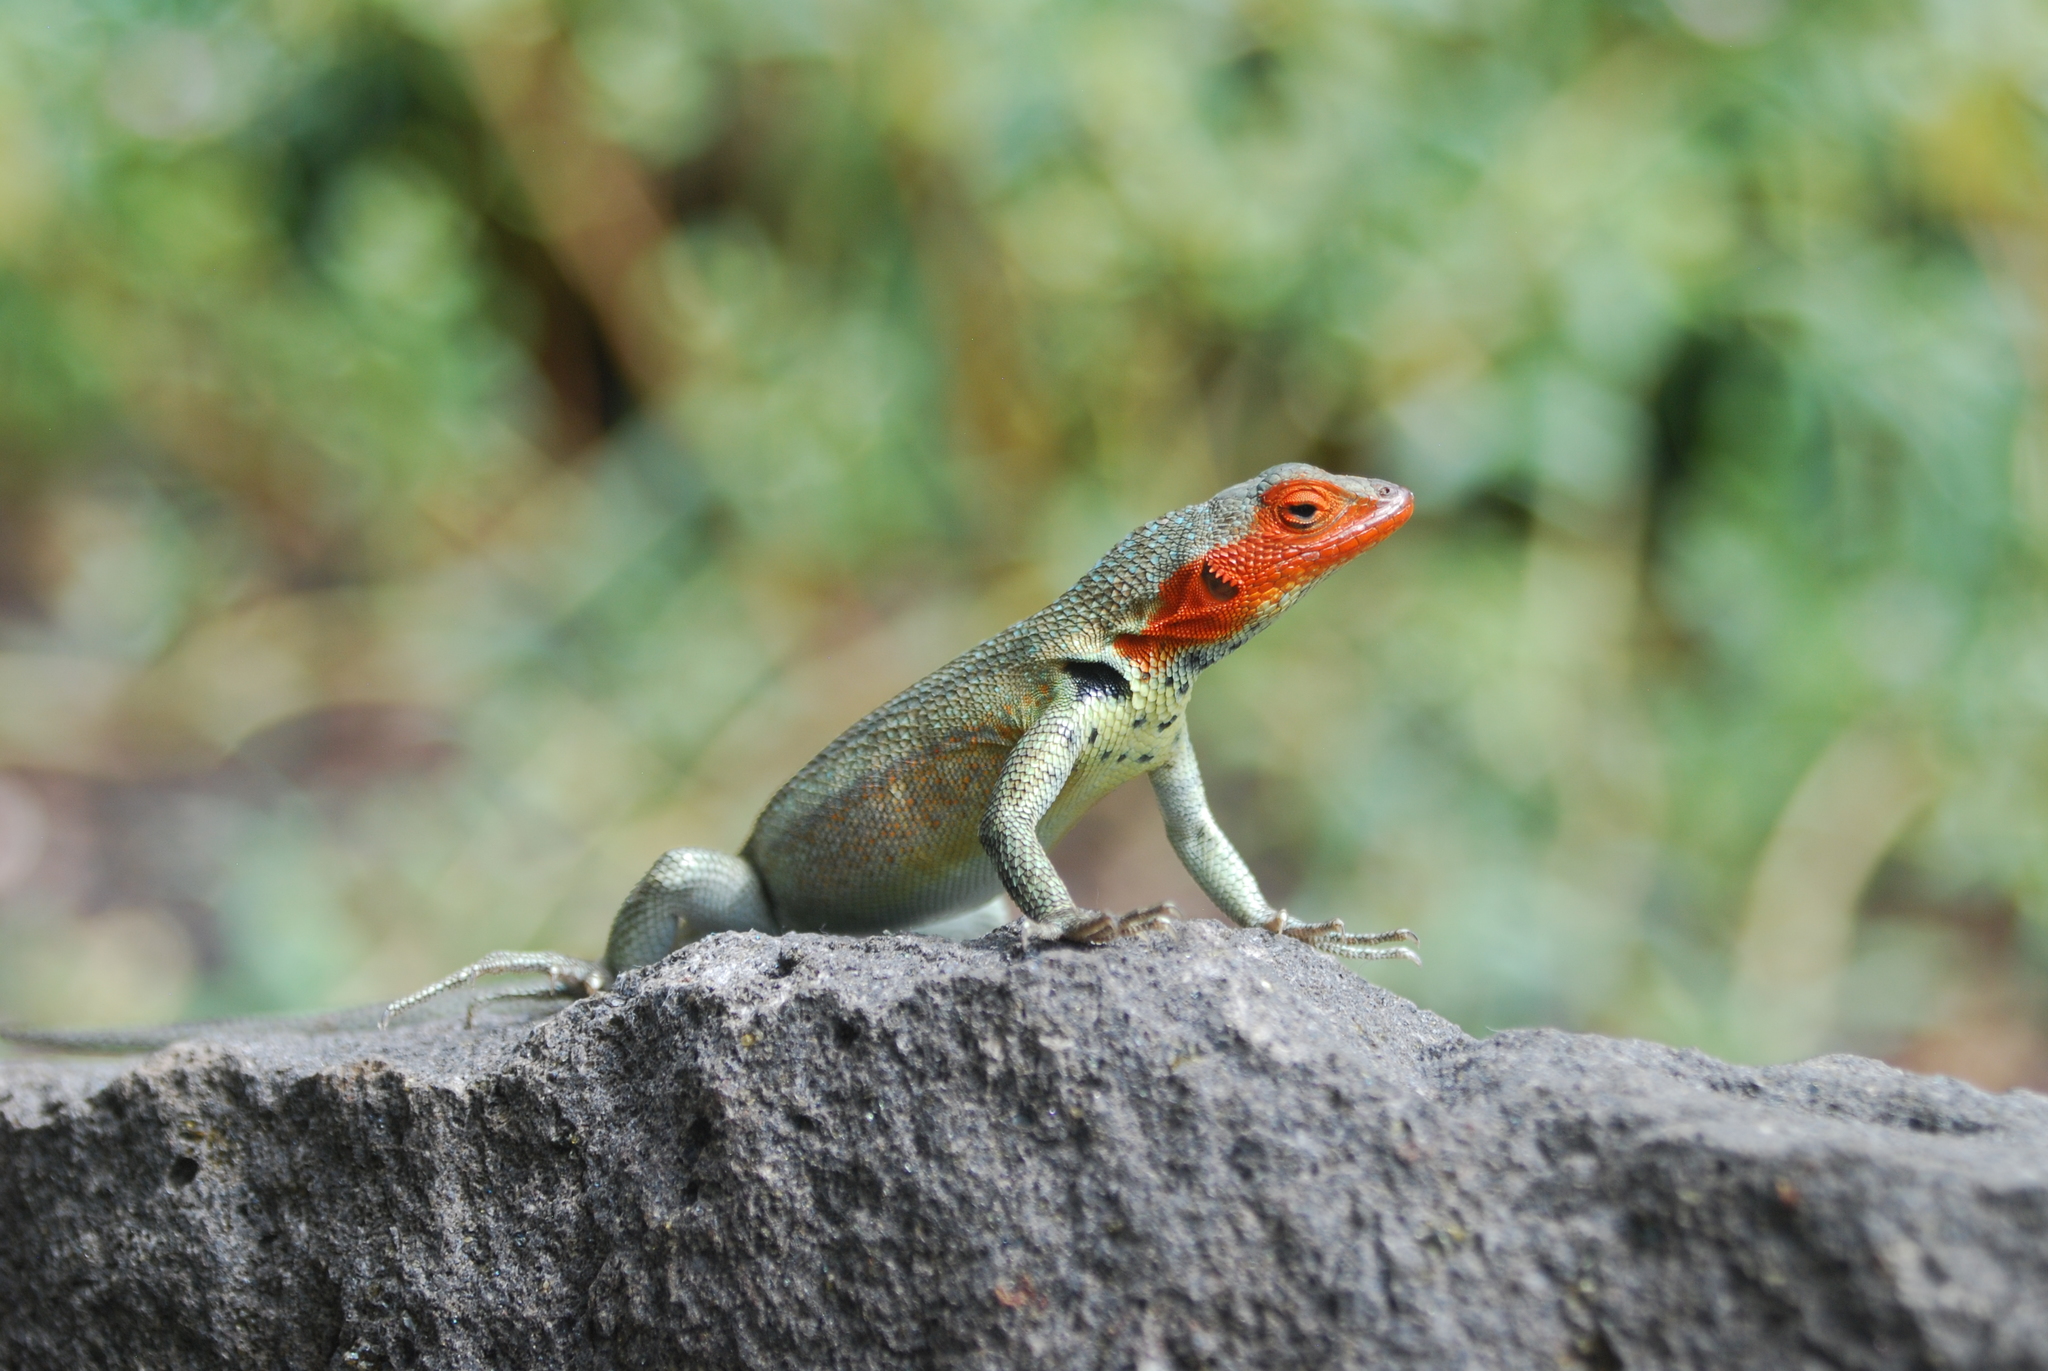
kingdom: Animalia
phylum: Chordata
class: Squamata
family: Tropiduridae
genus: Microlophus
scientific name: Microlophus indefatigabilis
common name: Galapagos lava lizard
